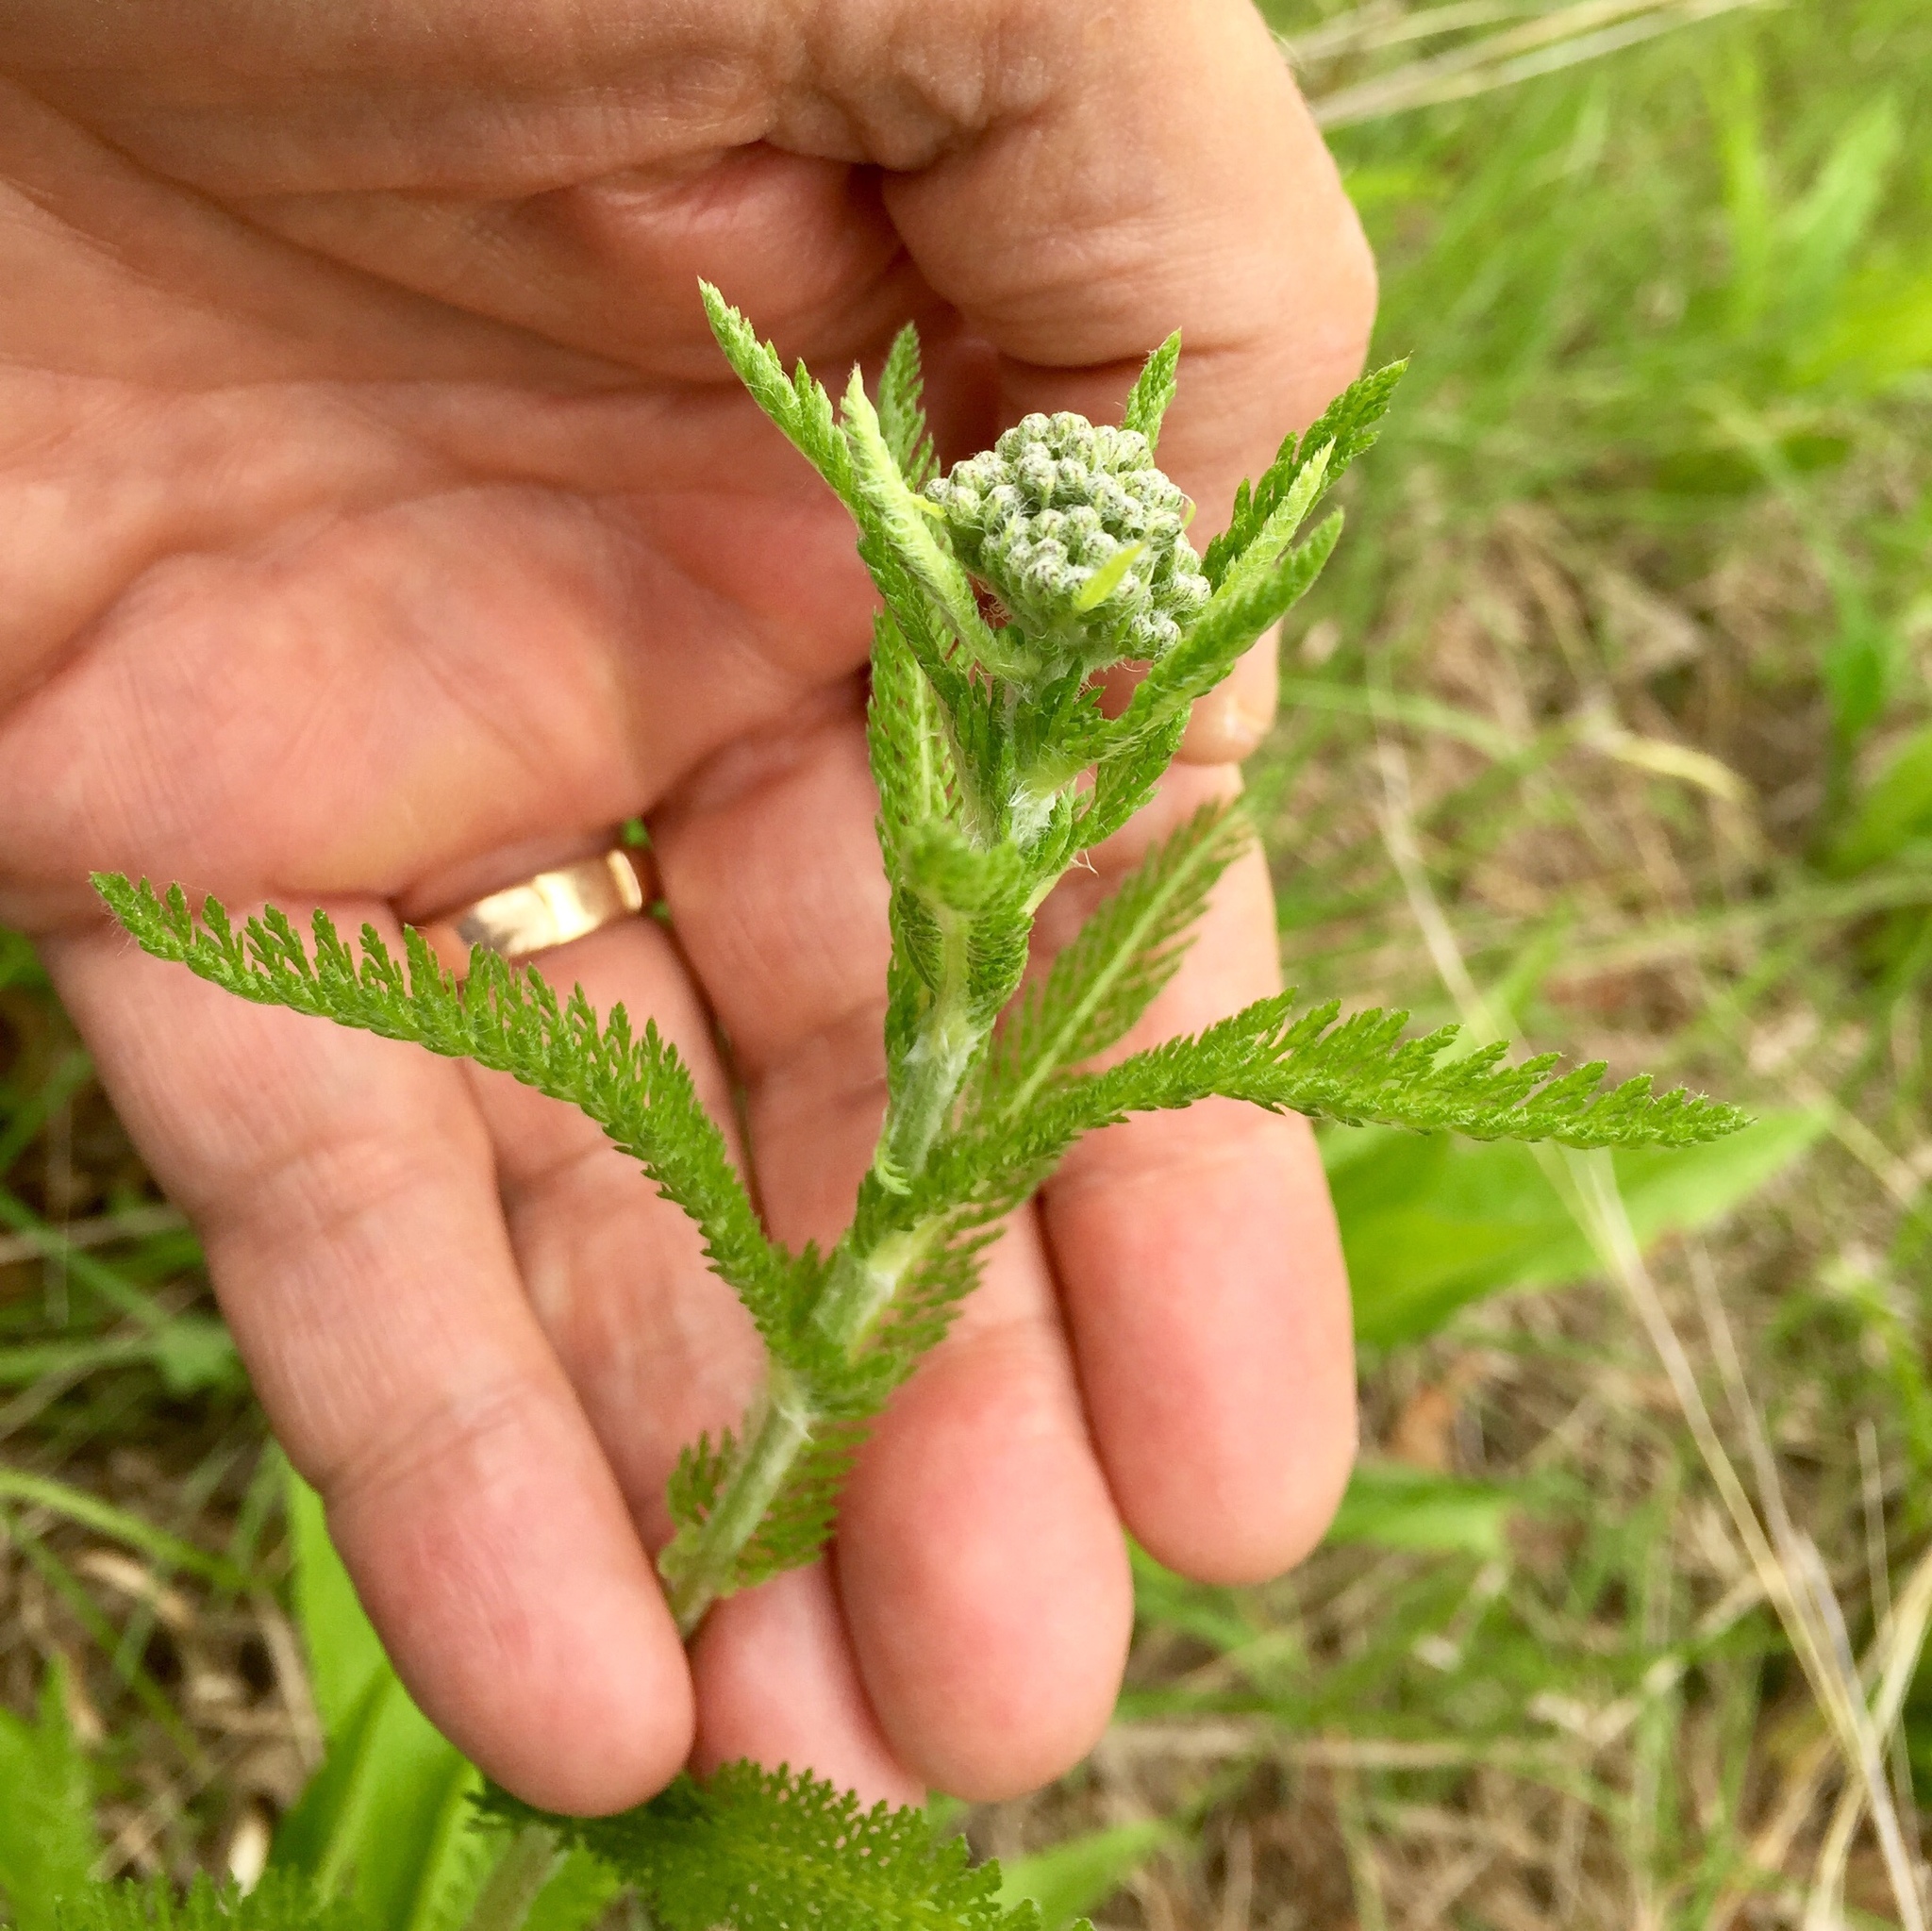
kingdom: Plantae
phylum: Tracheophyta
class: Magnoliopsida
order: Asterales
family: Asteraceae
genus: Achillea
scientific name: Achillea millefolium
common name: Yarrow
